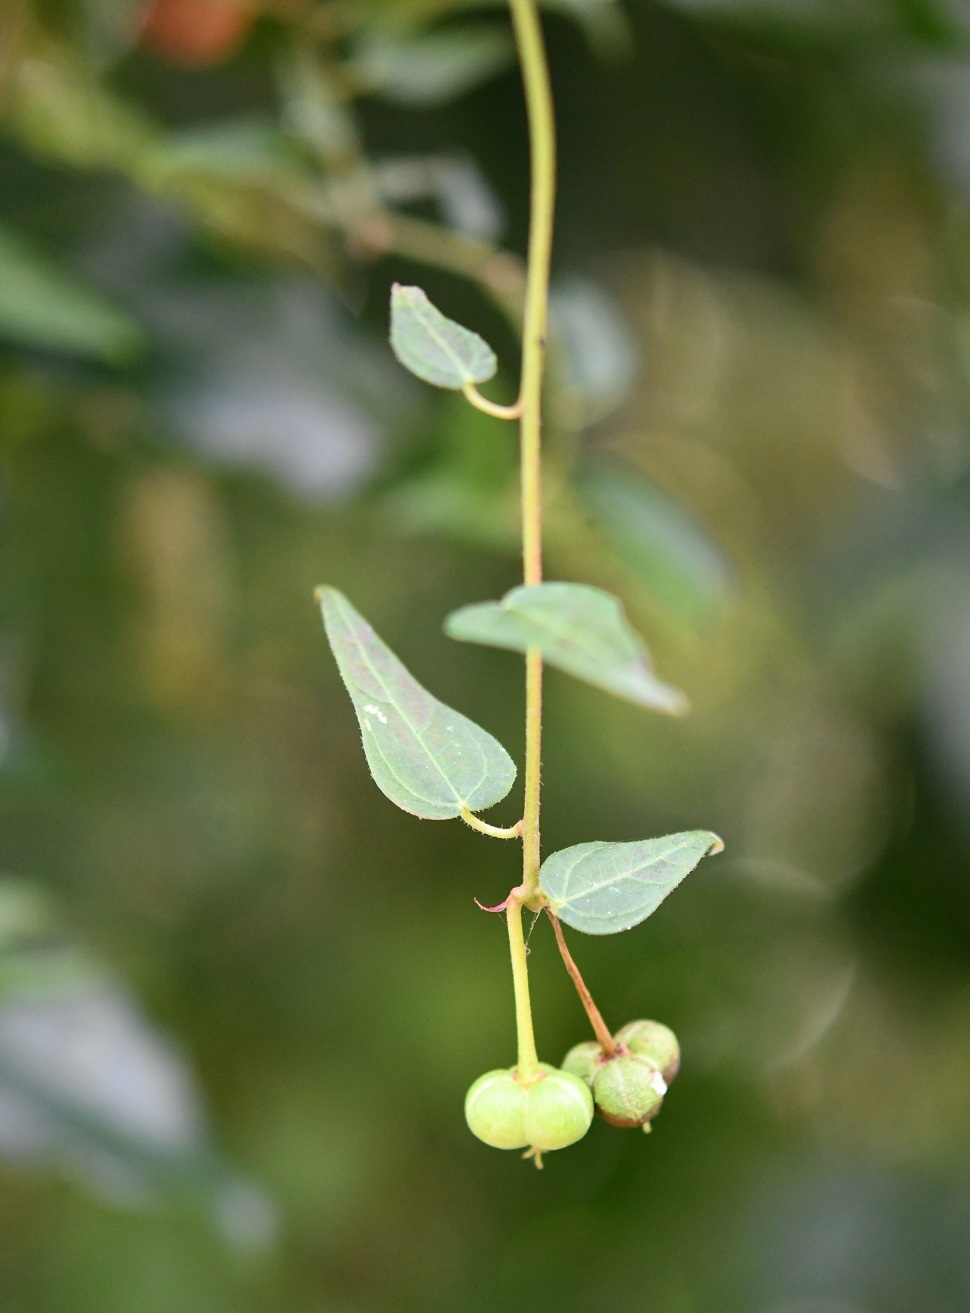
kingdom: Plantae
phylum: Tracheophyta
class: Magnoliopsida
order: Malpighiales
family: Euphorbiaceae
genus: Dalembertia
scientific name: Dalembertia triangularis
